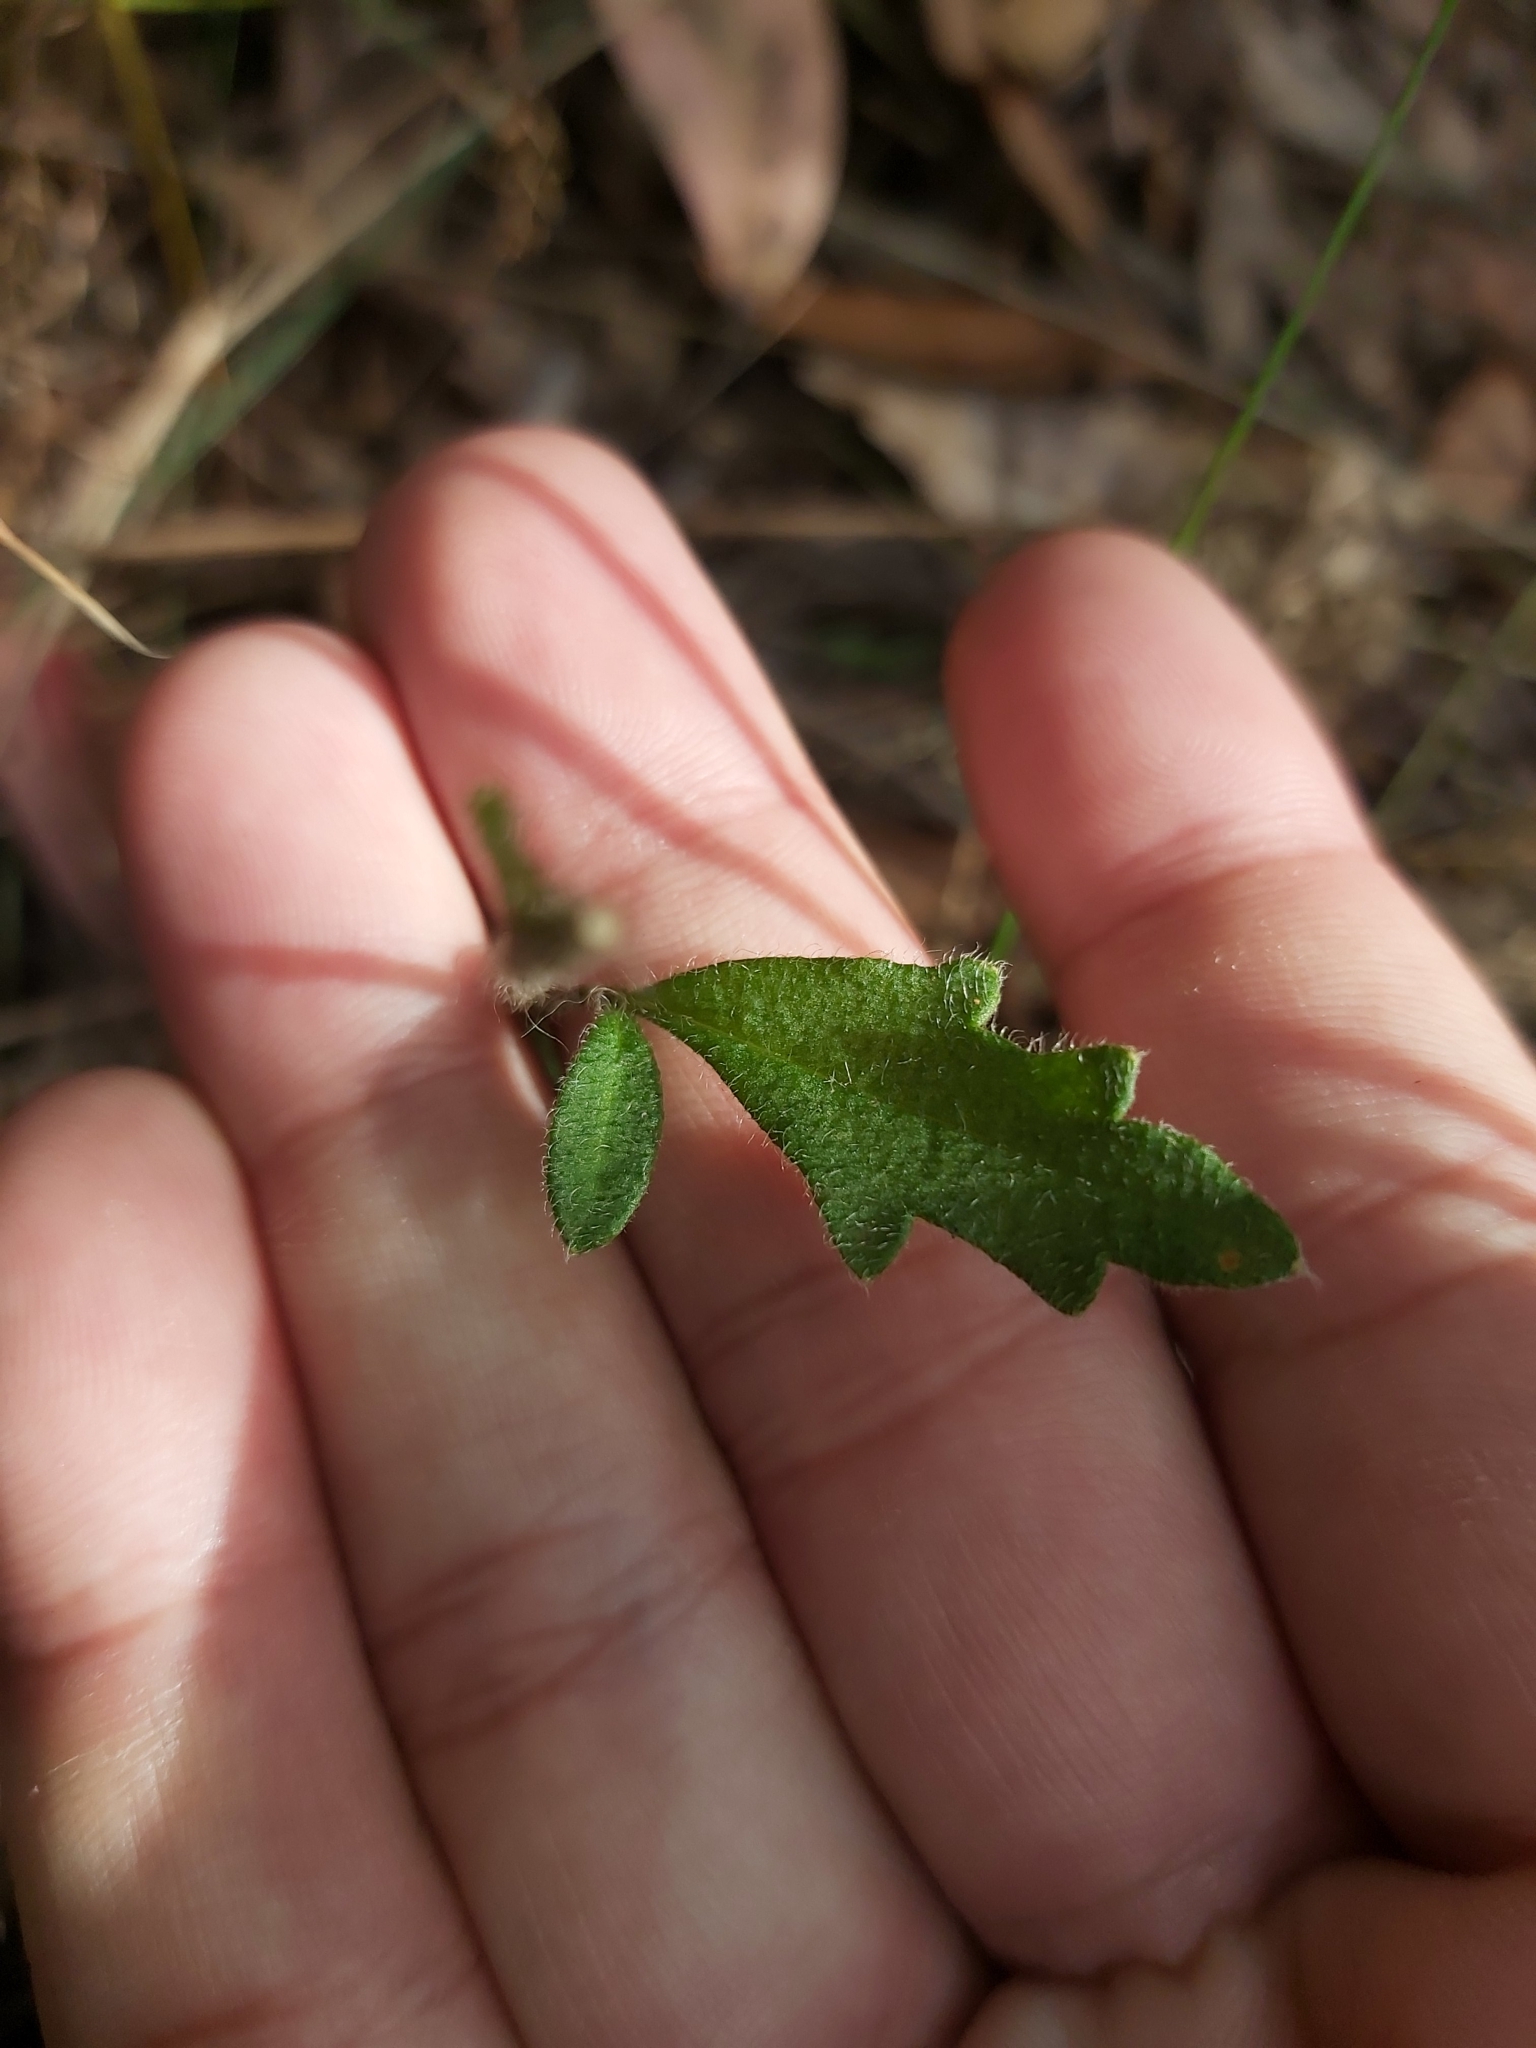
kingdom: Plantae
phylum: Tracheophyta
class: Magnoliopsida
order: Apiales
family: Apiaceae
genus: Xanthosia
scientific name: Xanthosia pilosa
